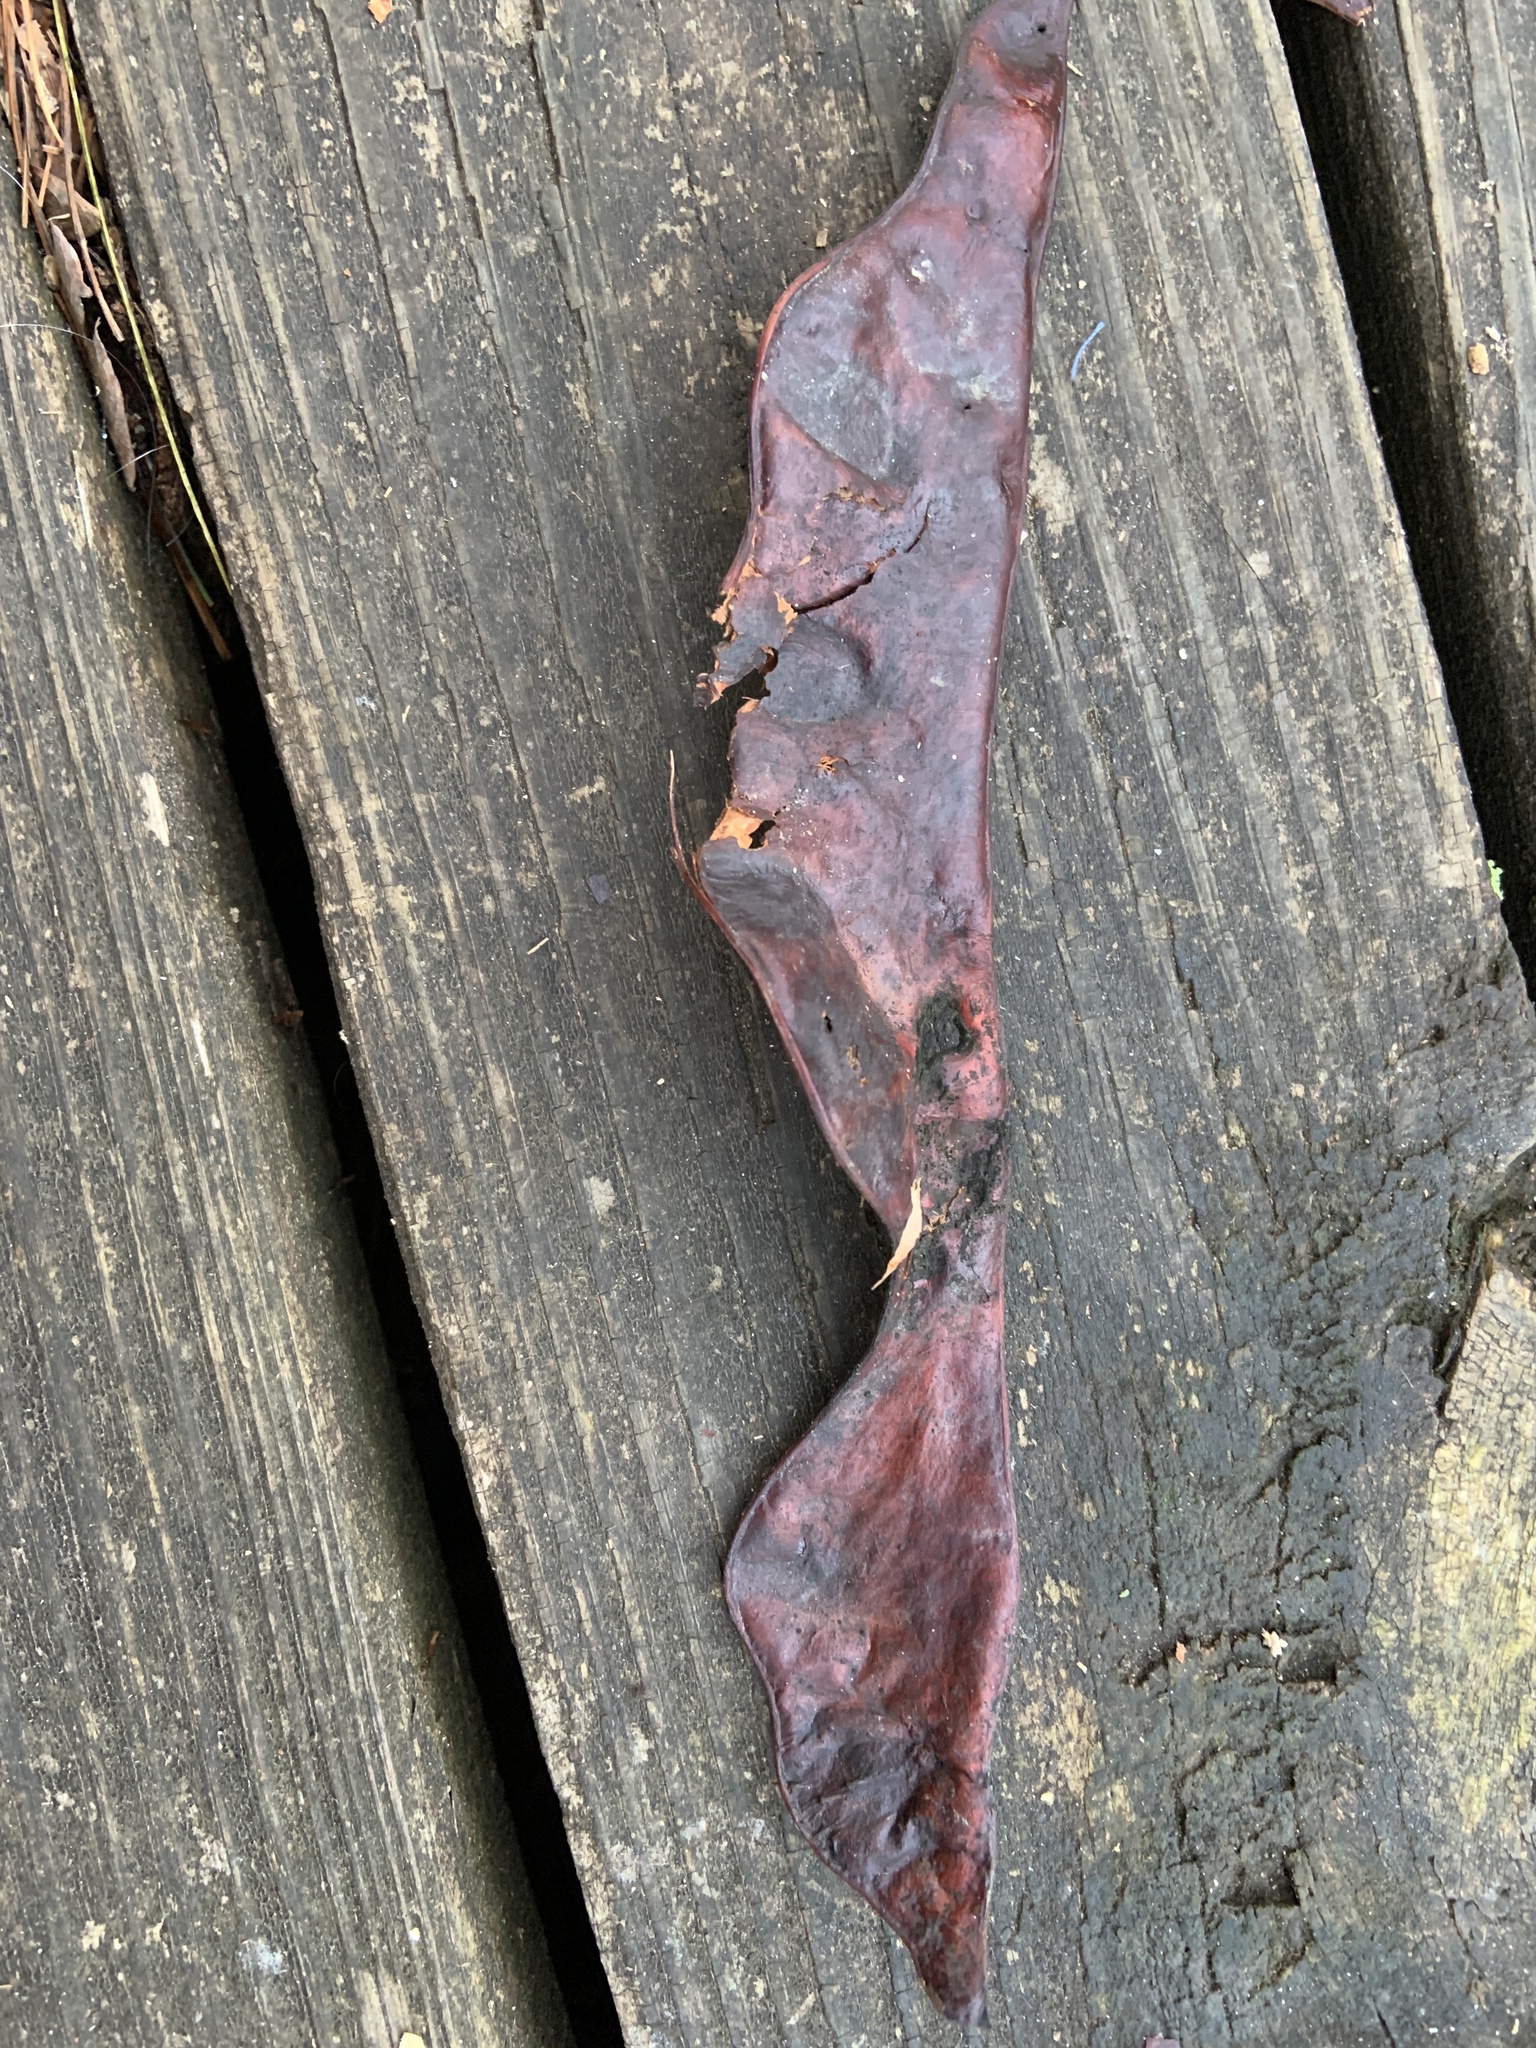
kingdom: Plantae
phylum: Tracheophyta
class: Magnoliopsida
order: Fabales
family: Fabaceae
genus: Gleditsia
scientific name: Gleditsia triacanthos
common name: Common honeylocust
